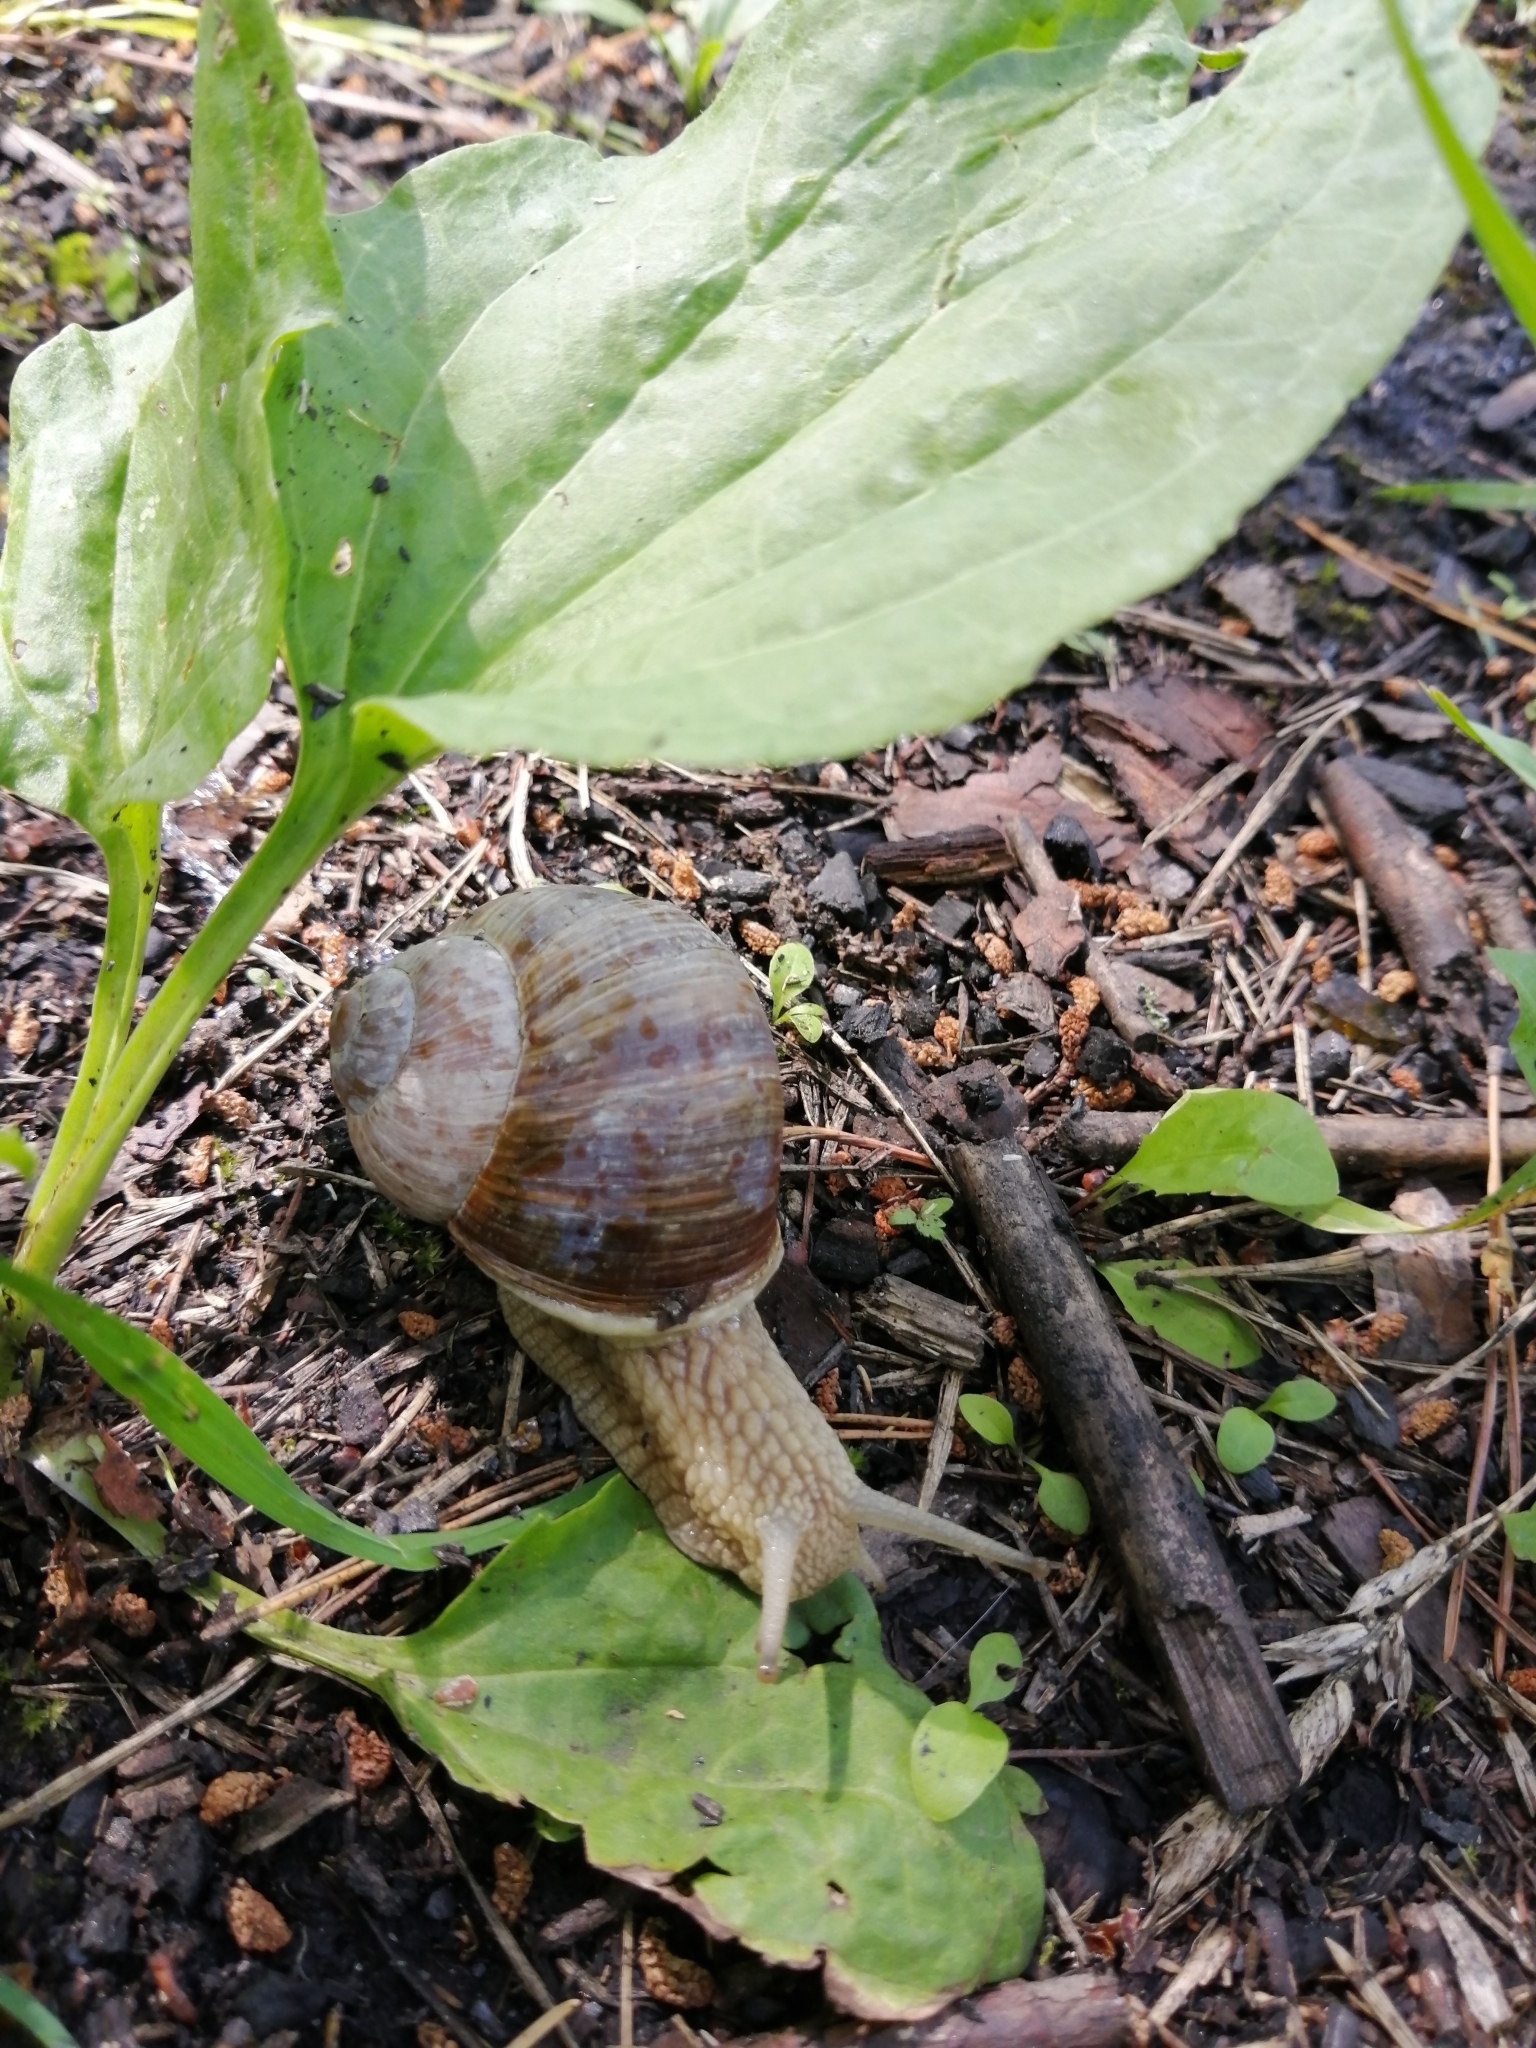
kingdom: Animalia
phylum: Mollusca
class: Gastropoda
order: Stylommatophora
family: Helicidae
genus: Helix
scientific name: Helix pomatia
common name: Roman snail
